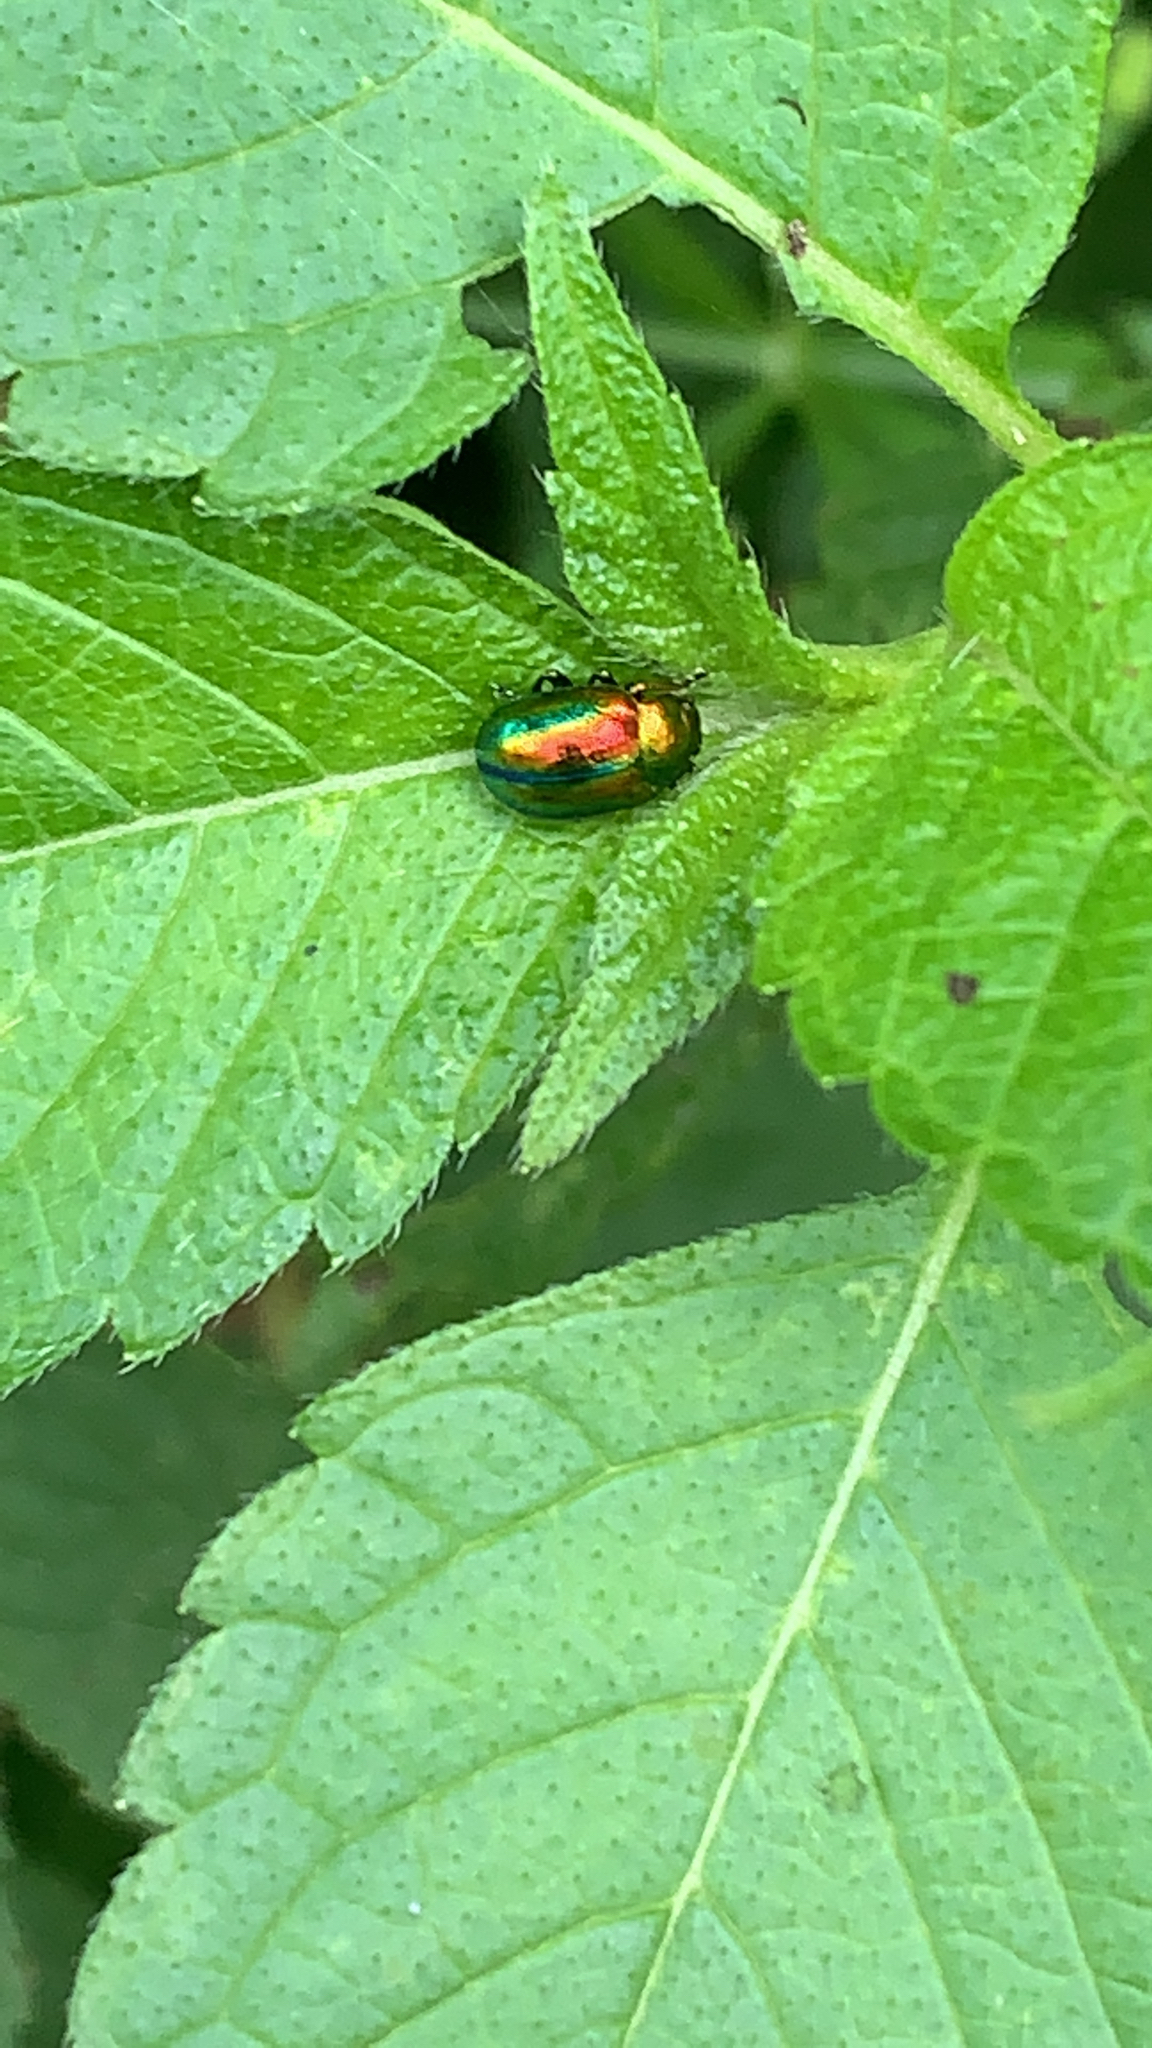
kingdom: Animalia
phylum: Arthropoda
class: Insecta
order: Coleoptera
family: Chrysomelidae
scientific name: Chrysomelidae
